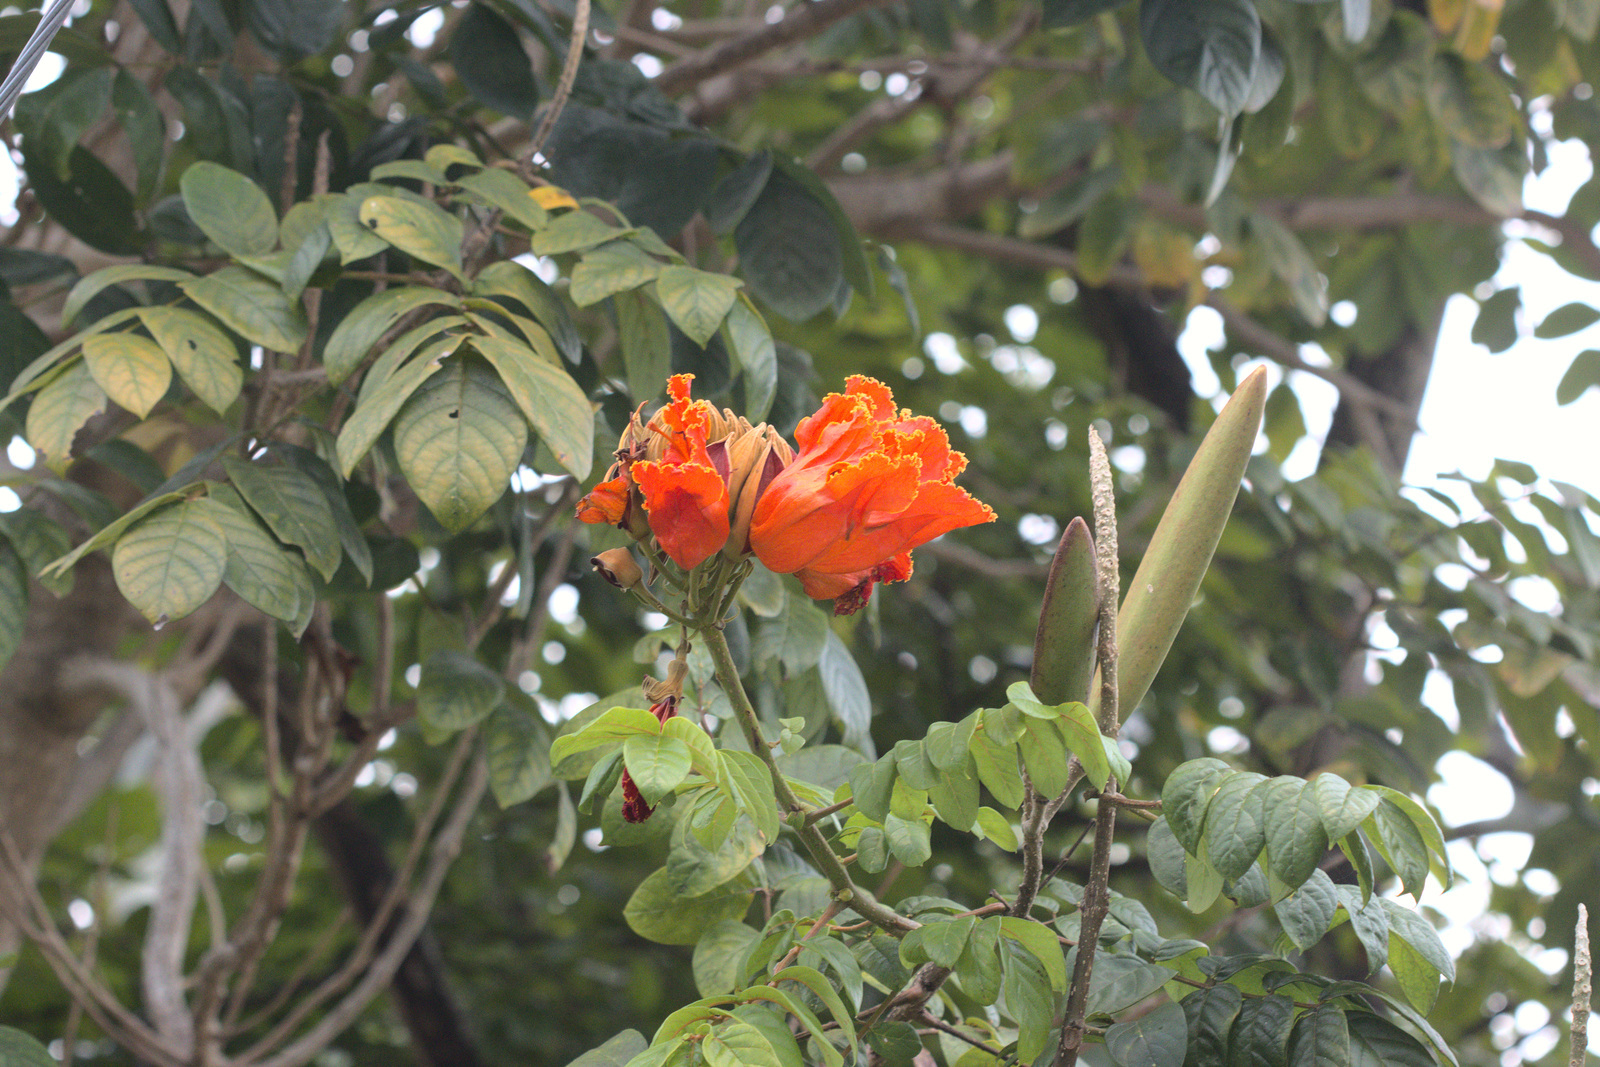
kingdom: Plantae
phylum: Tracheophyta
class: Magnoliopsida
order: Lamiales
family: Bignoniaceae
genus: Spathodea
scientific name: Spathodea campanulata
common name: African tuliptree
